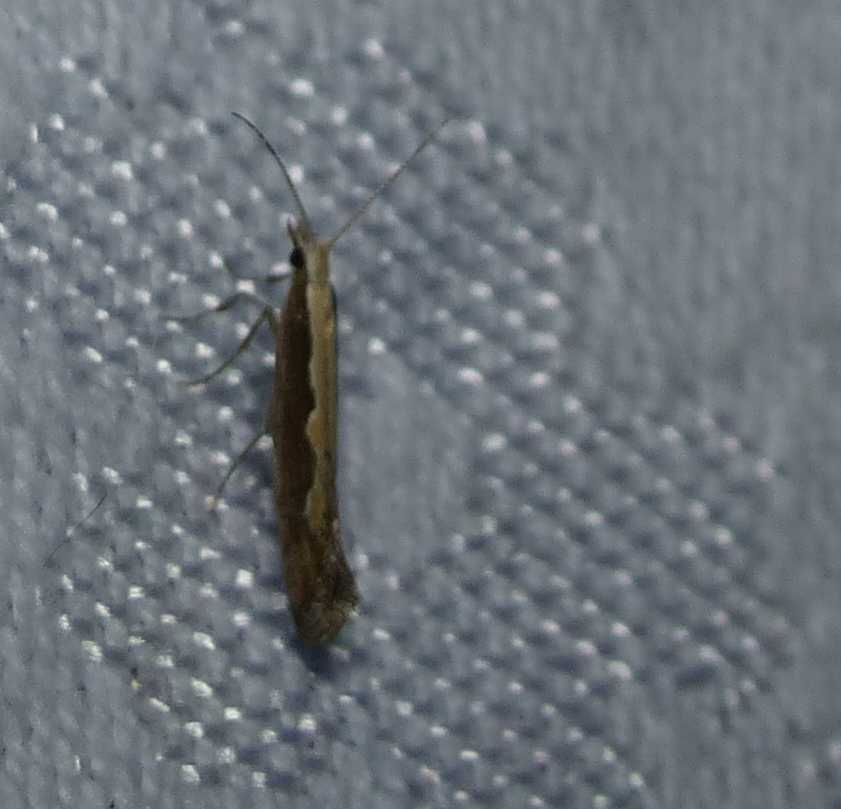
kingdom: Animalia
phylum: Arthropoda
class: Insecta
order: Lepidoptera
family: Plutellidae
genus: Plutella
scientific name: Plutella xylostella
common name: Diamond-back moth
